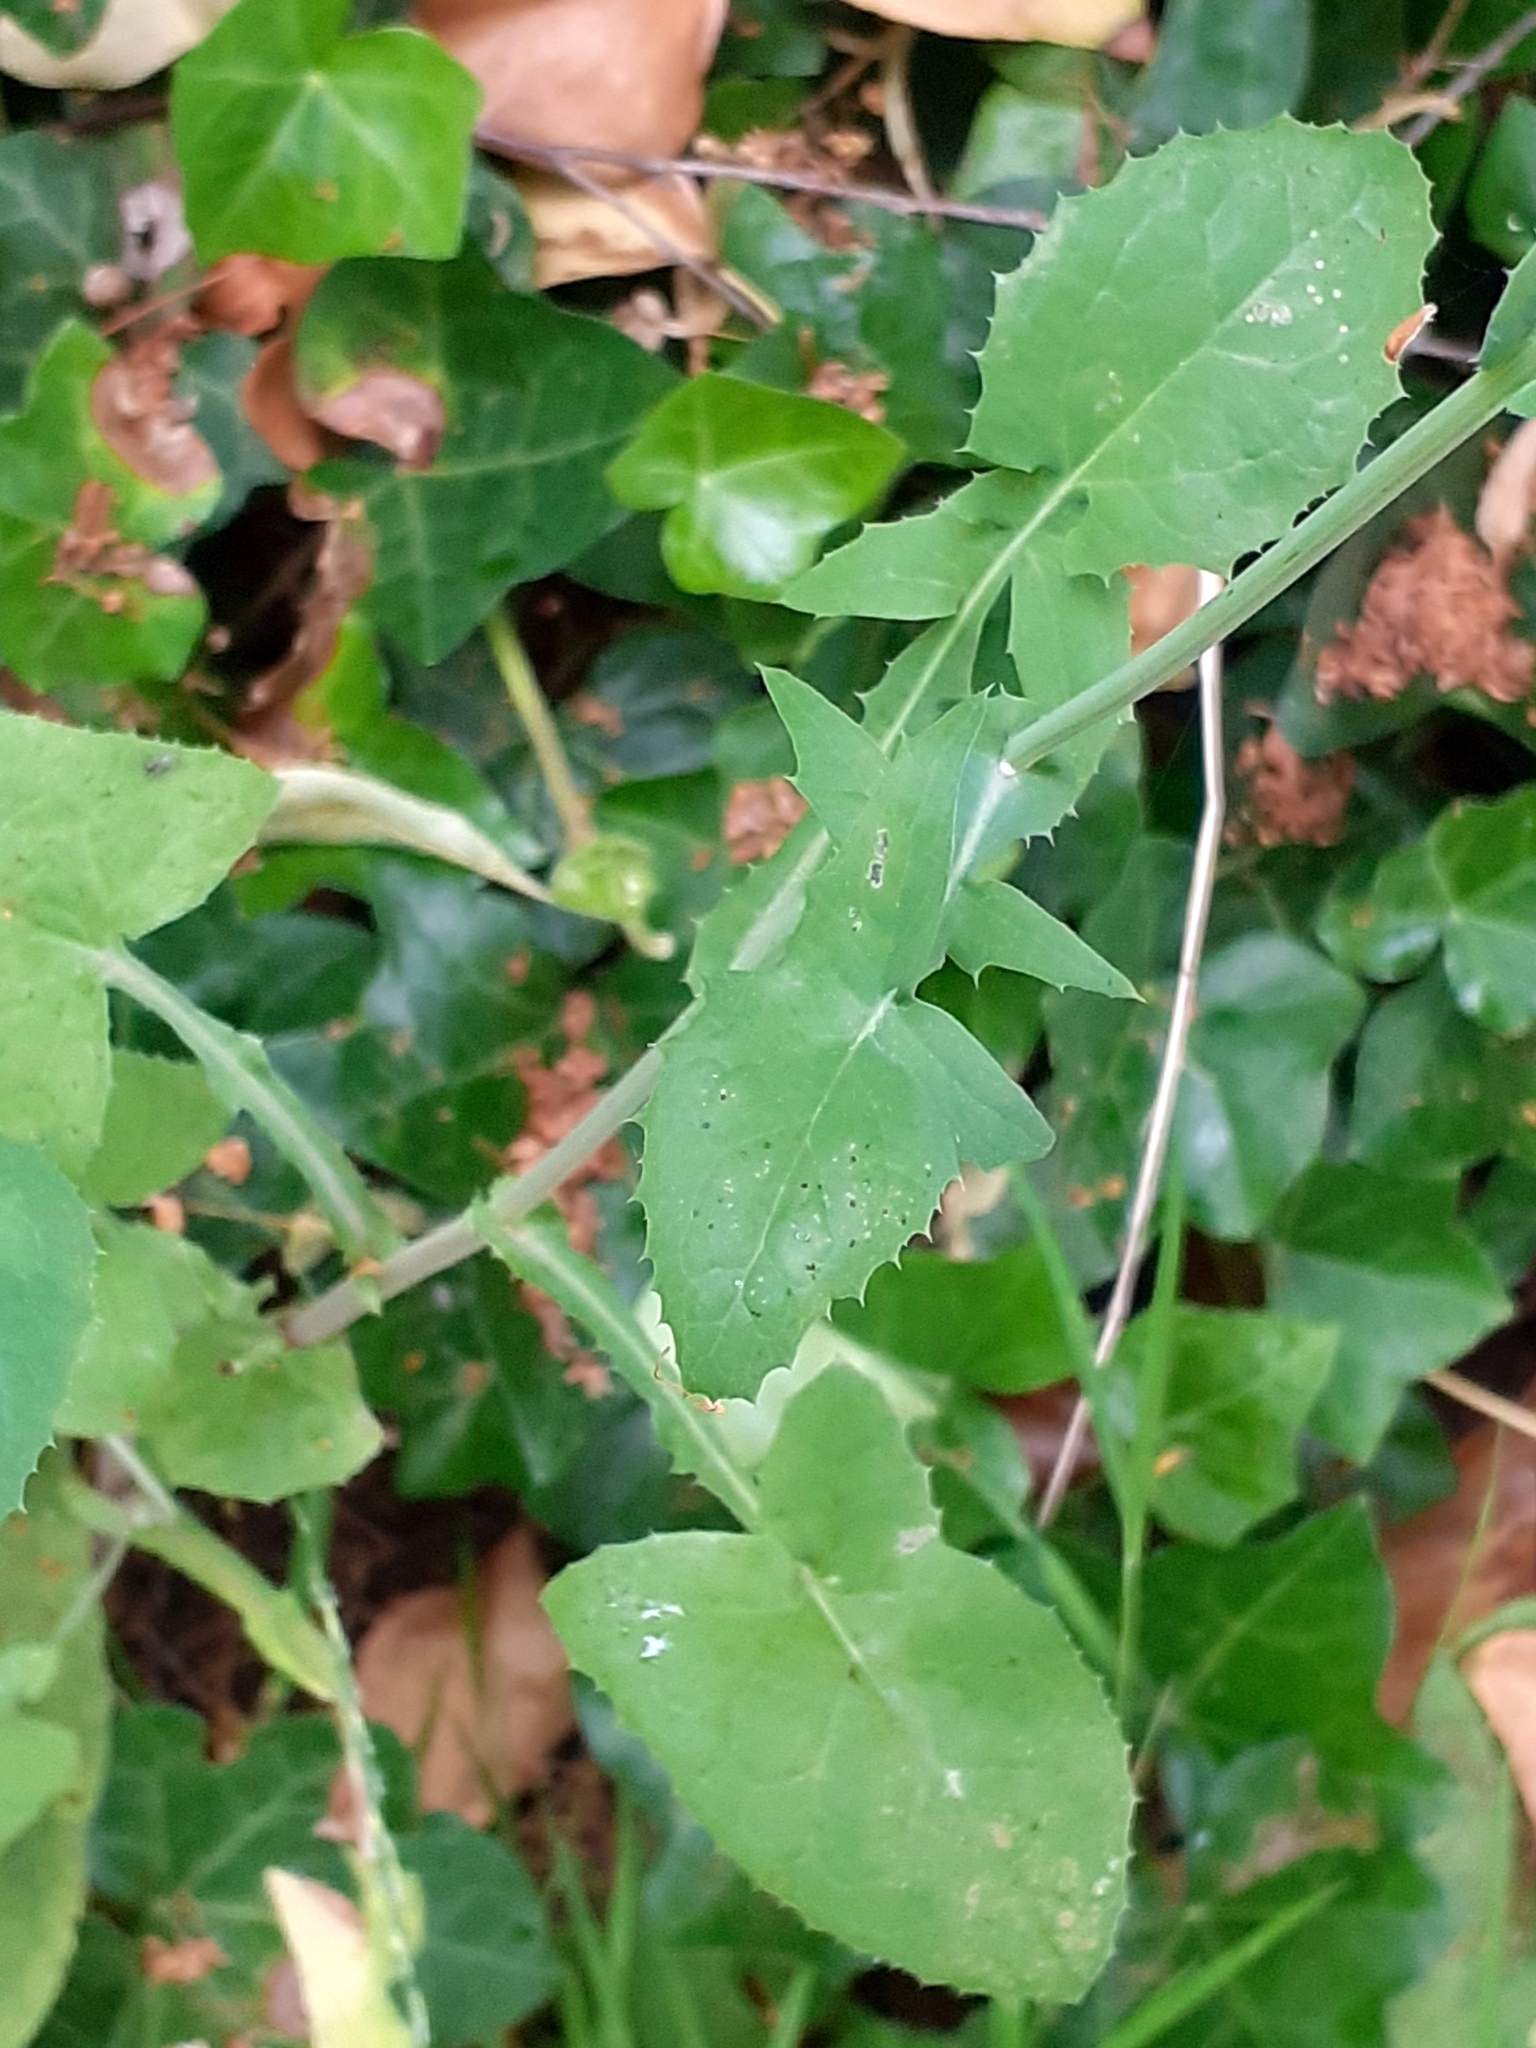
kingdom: Plantae
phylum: Tracheophyta
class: Magnoliopsida
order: Asterales
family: Asteraceae
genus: Sonchus
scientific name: Sonchus oleraceus
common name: Common sowthistle
